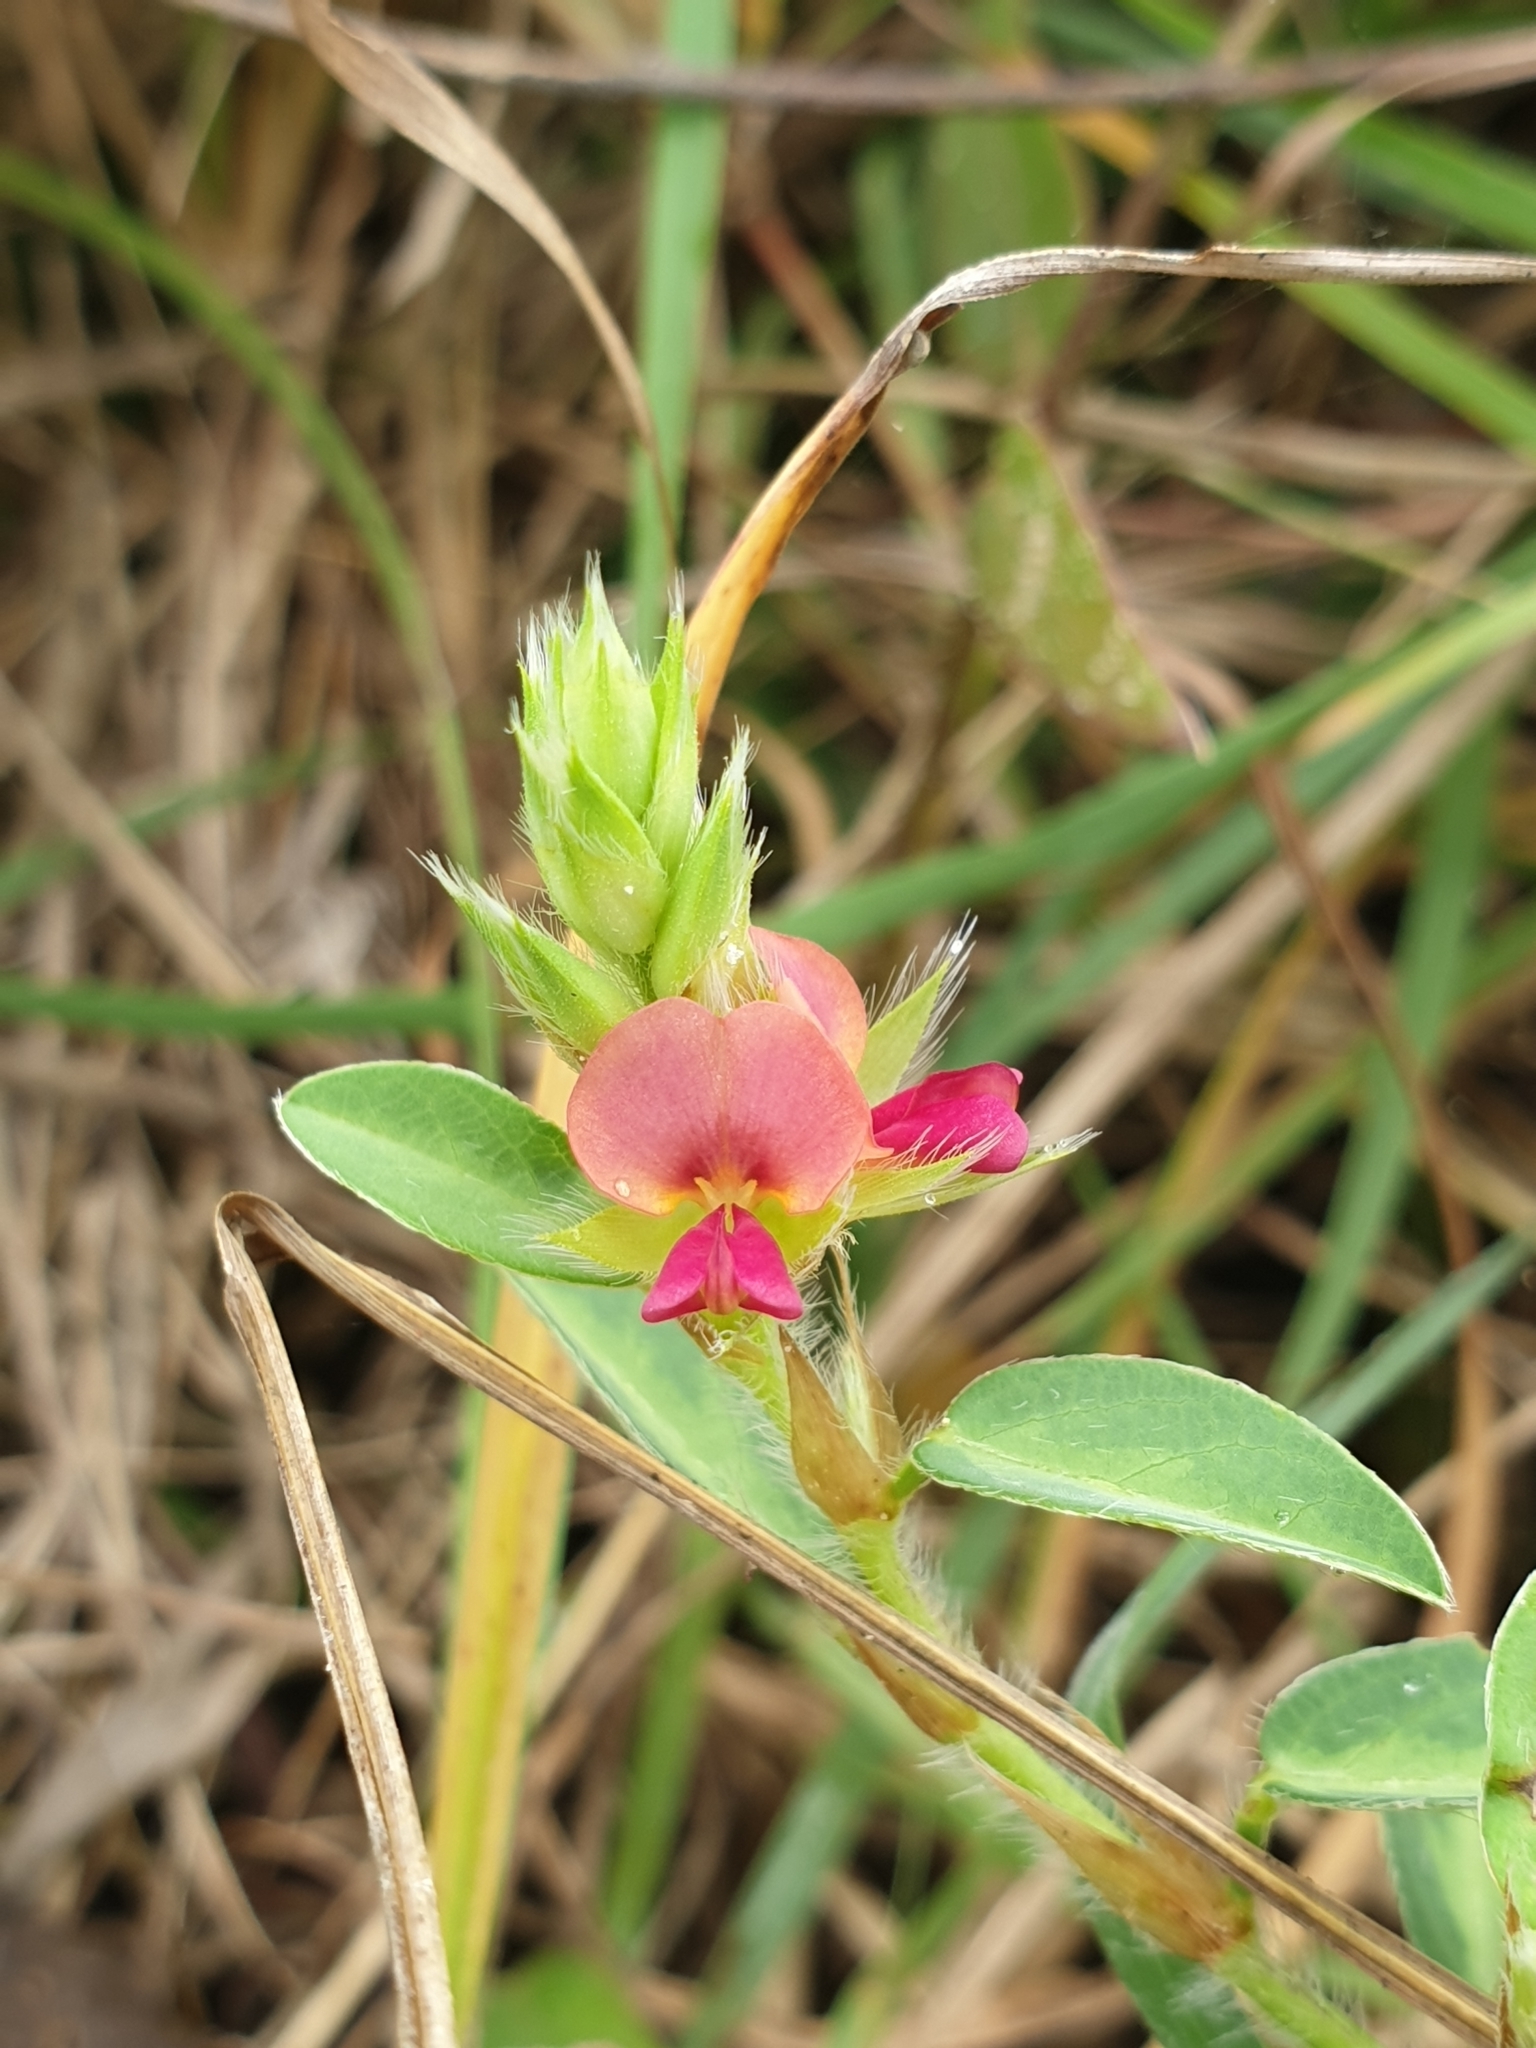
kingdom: Plantae
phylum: Tracheophyta
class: Magnoliopsida
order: Fabales
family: Fabaceae
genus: Alysicarpus
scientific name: Alysicarpus vaginalis
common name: White moneywort
